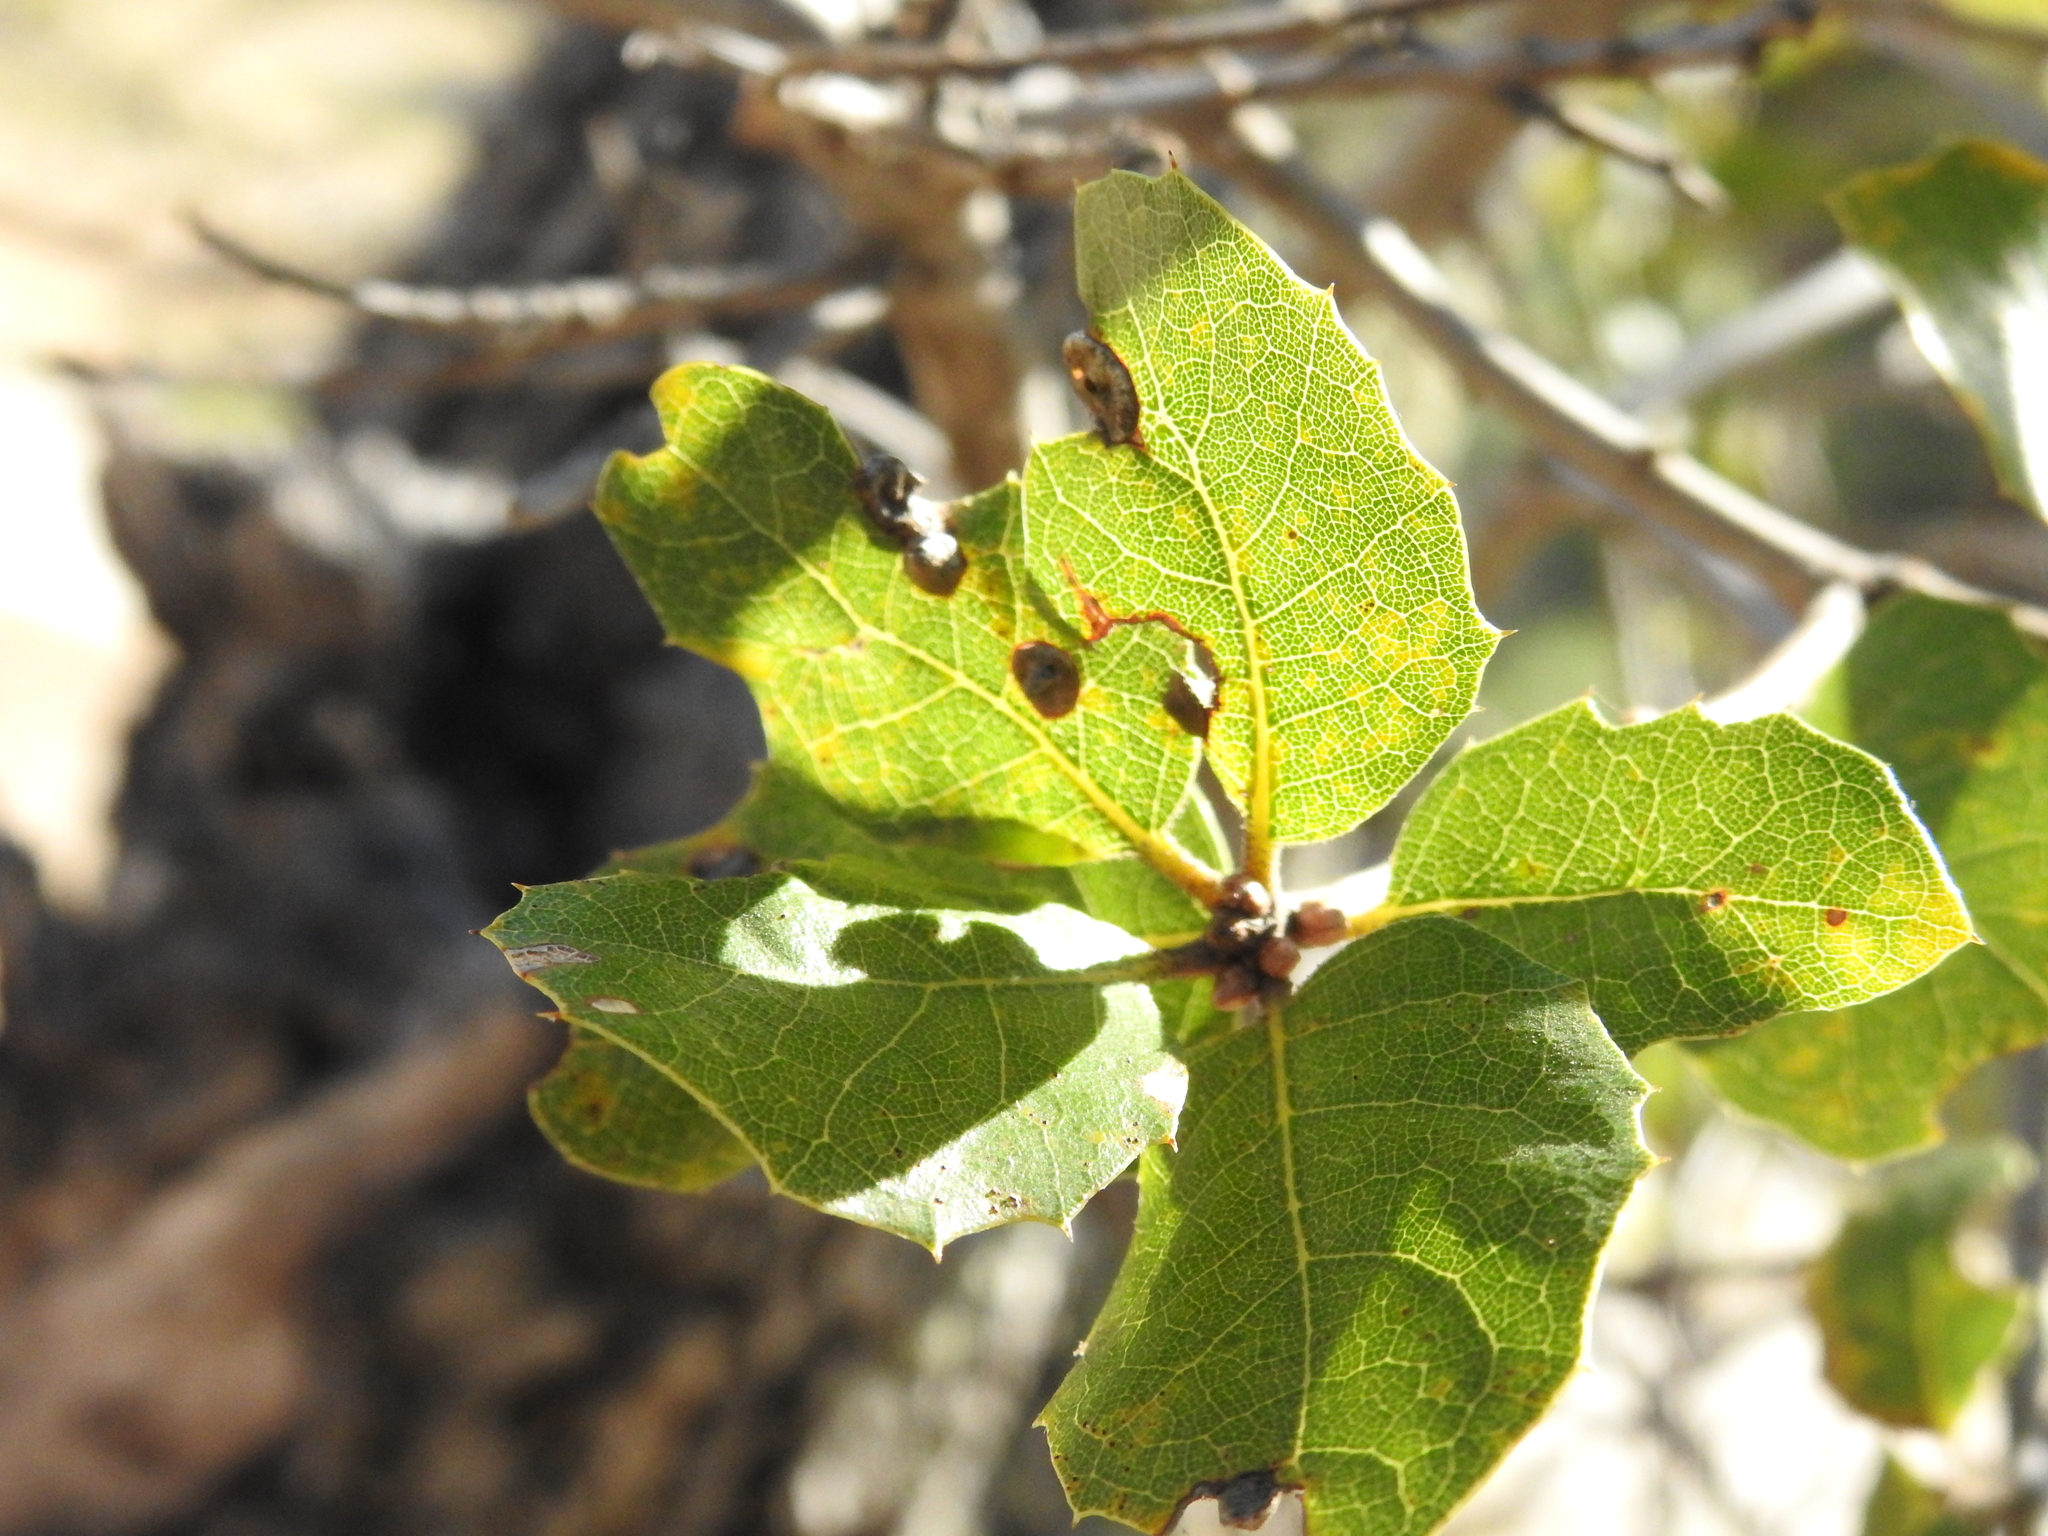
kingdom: Animalia
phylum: Arthropoda
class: Insecta
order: Hymenoptera
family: Cynipidae
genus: Dryocosmus
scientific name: Dryocosmus
